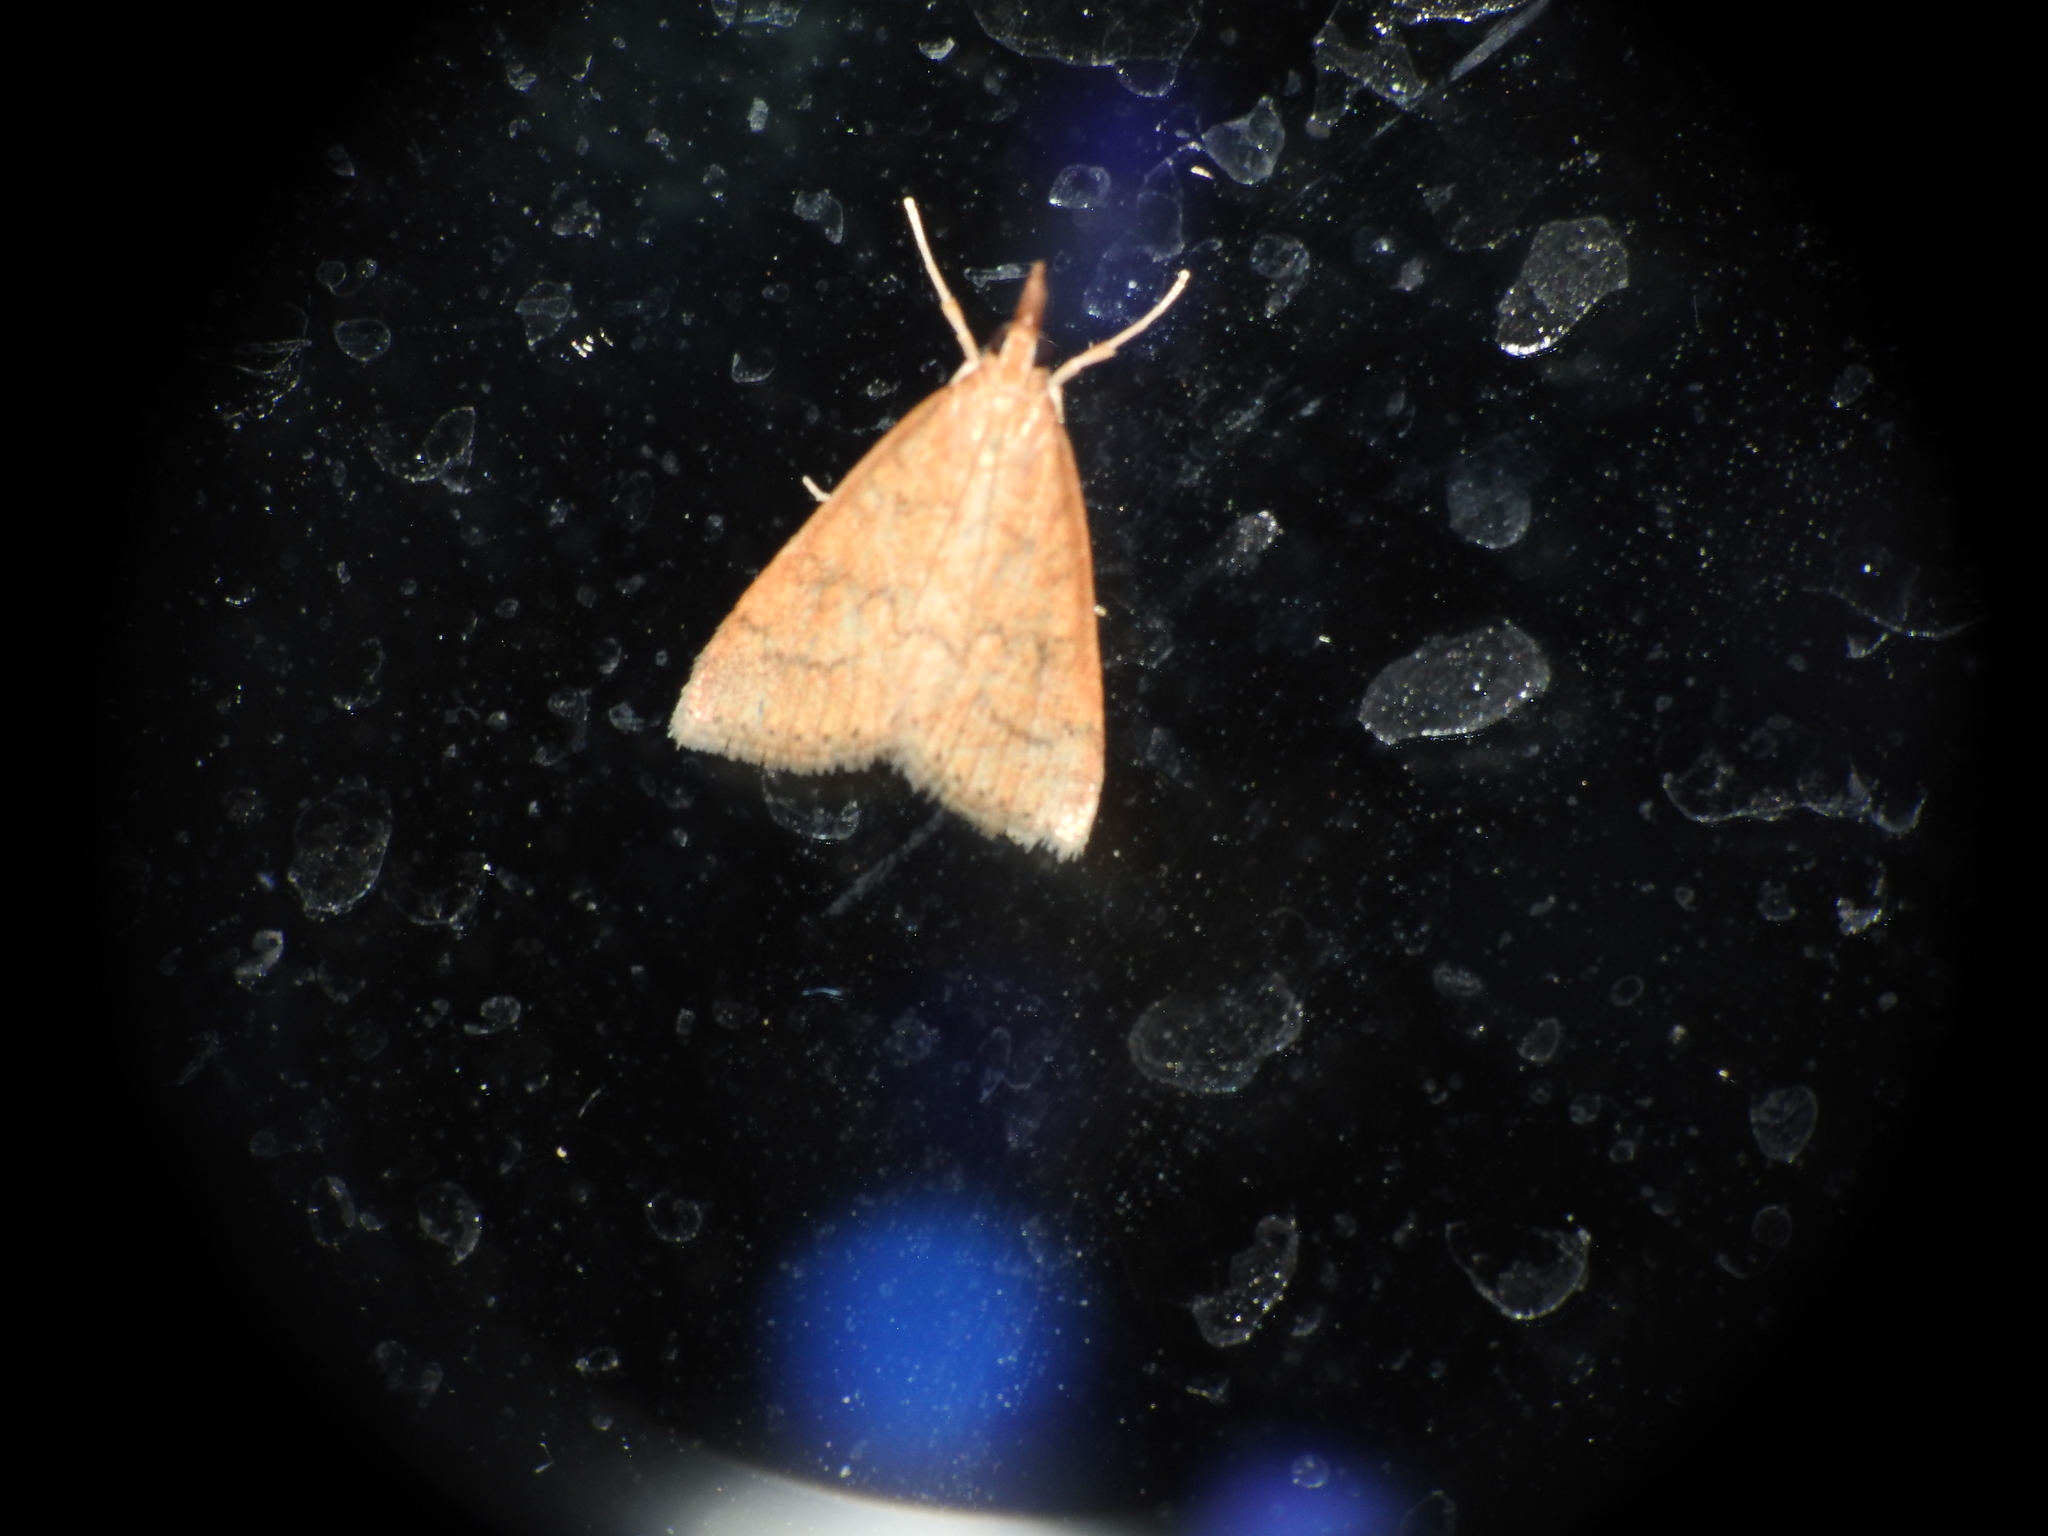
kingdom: Animalia
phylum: Arthropoda
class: Insecta
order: Lepidoptera
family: Crambidae
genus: Udea
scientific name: Udea rubigalis
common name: Celery leaftier moth
